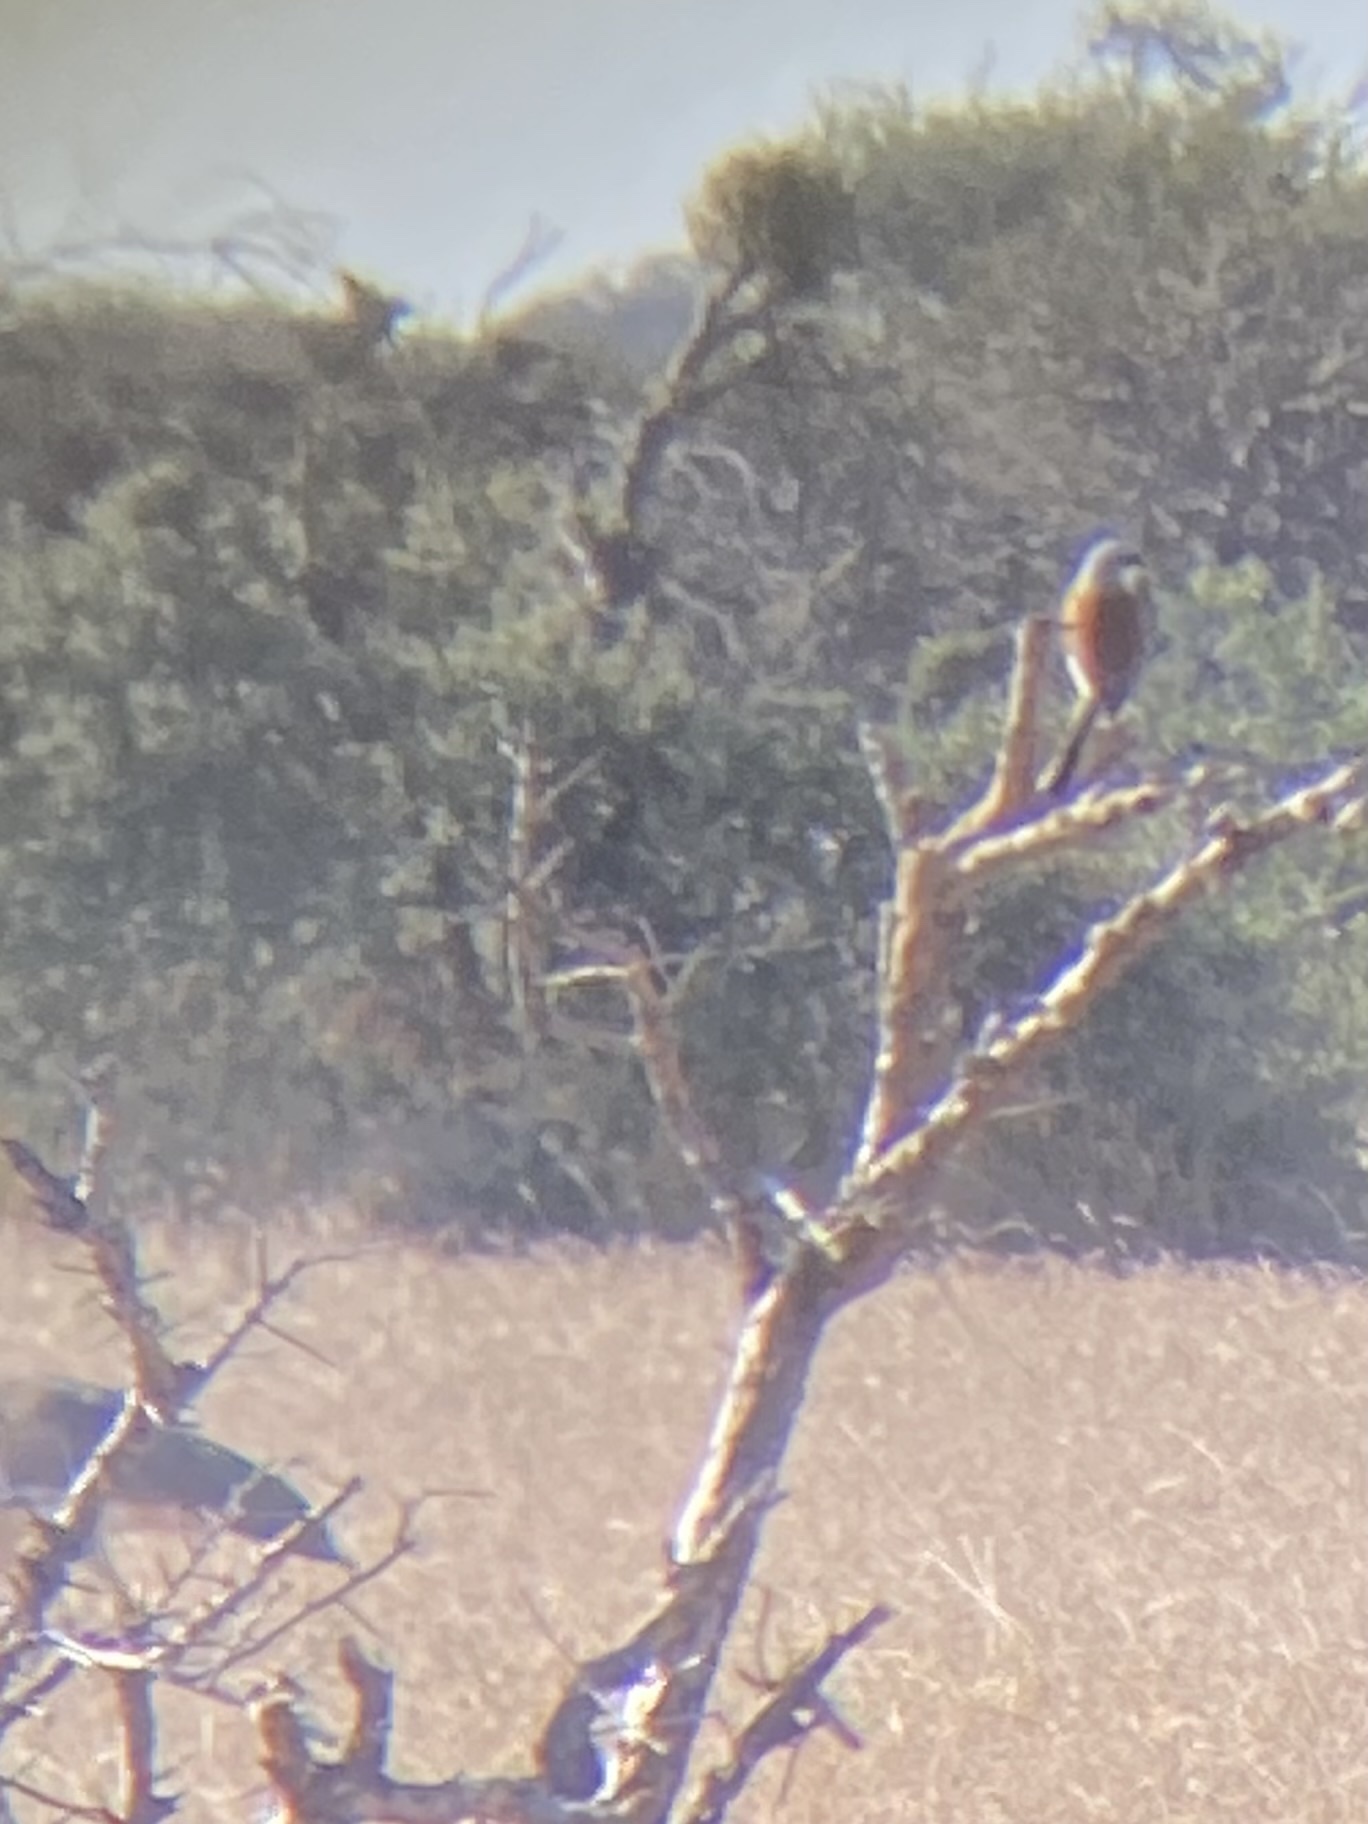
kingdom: Animalia
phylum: Chordata
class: Aves
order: Passeriformes
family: Laniidae
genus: Lanius
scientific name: Lanius collurio
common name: Red-backed shrike
